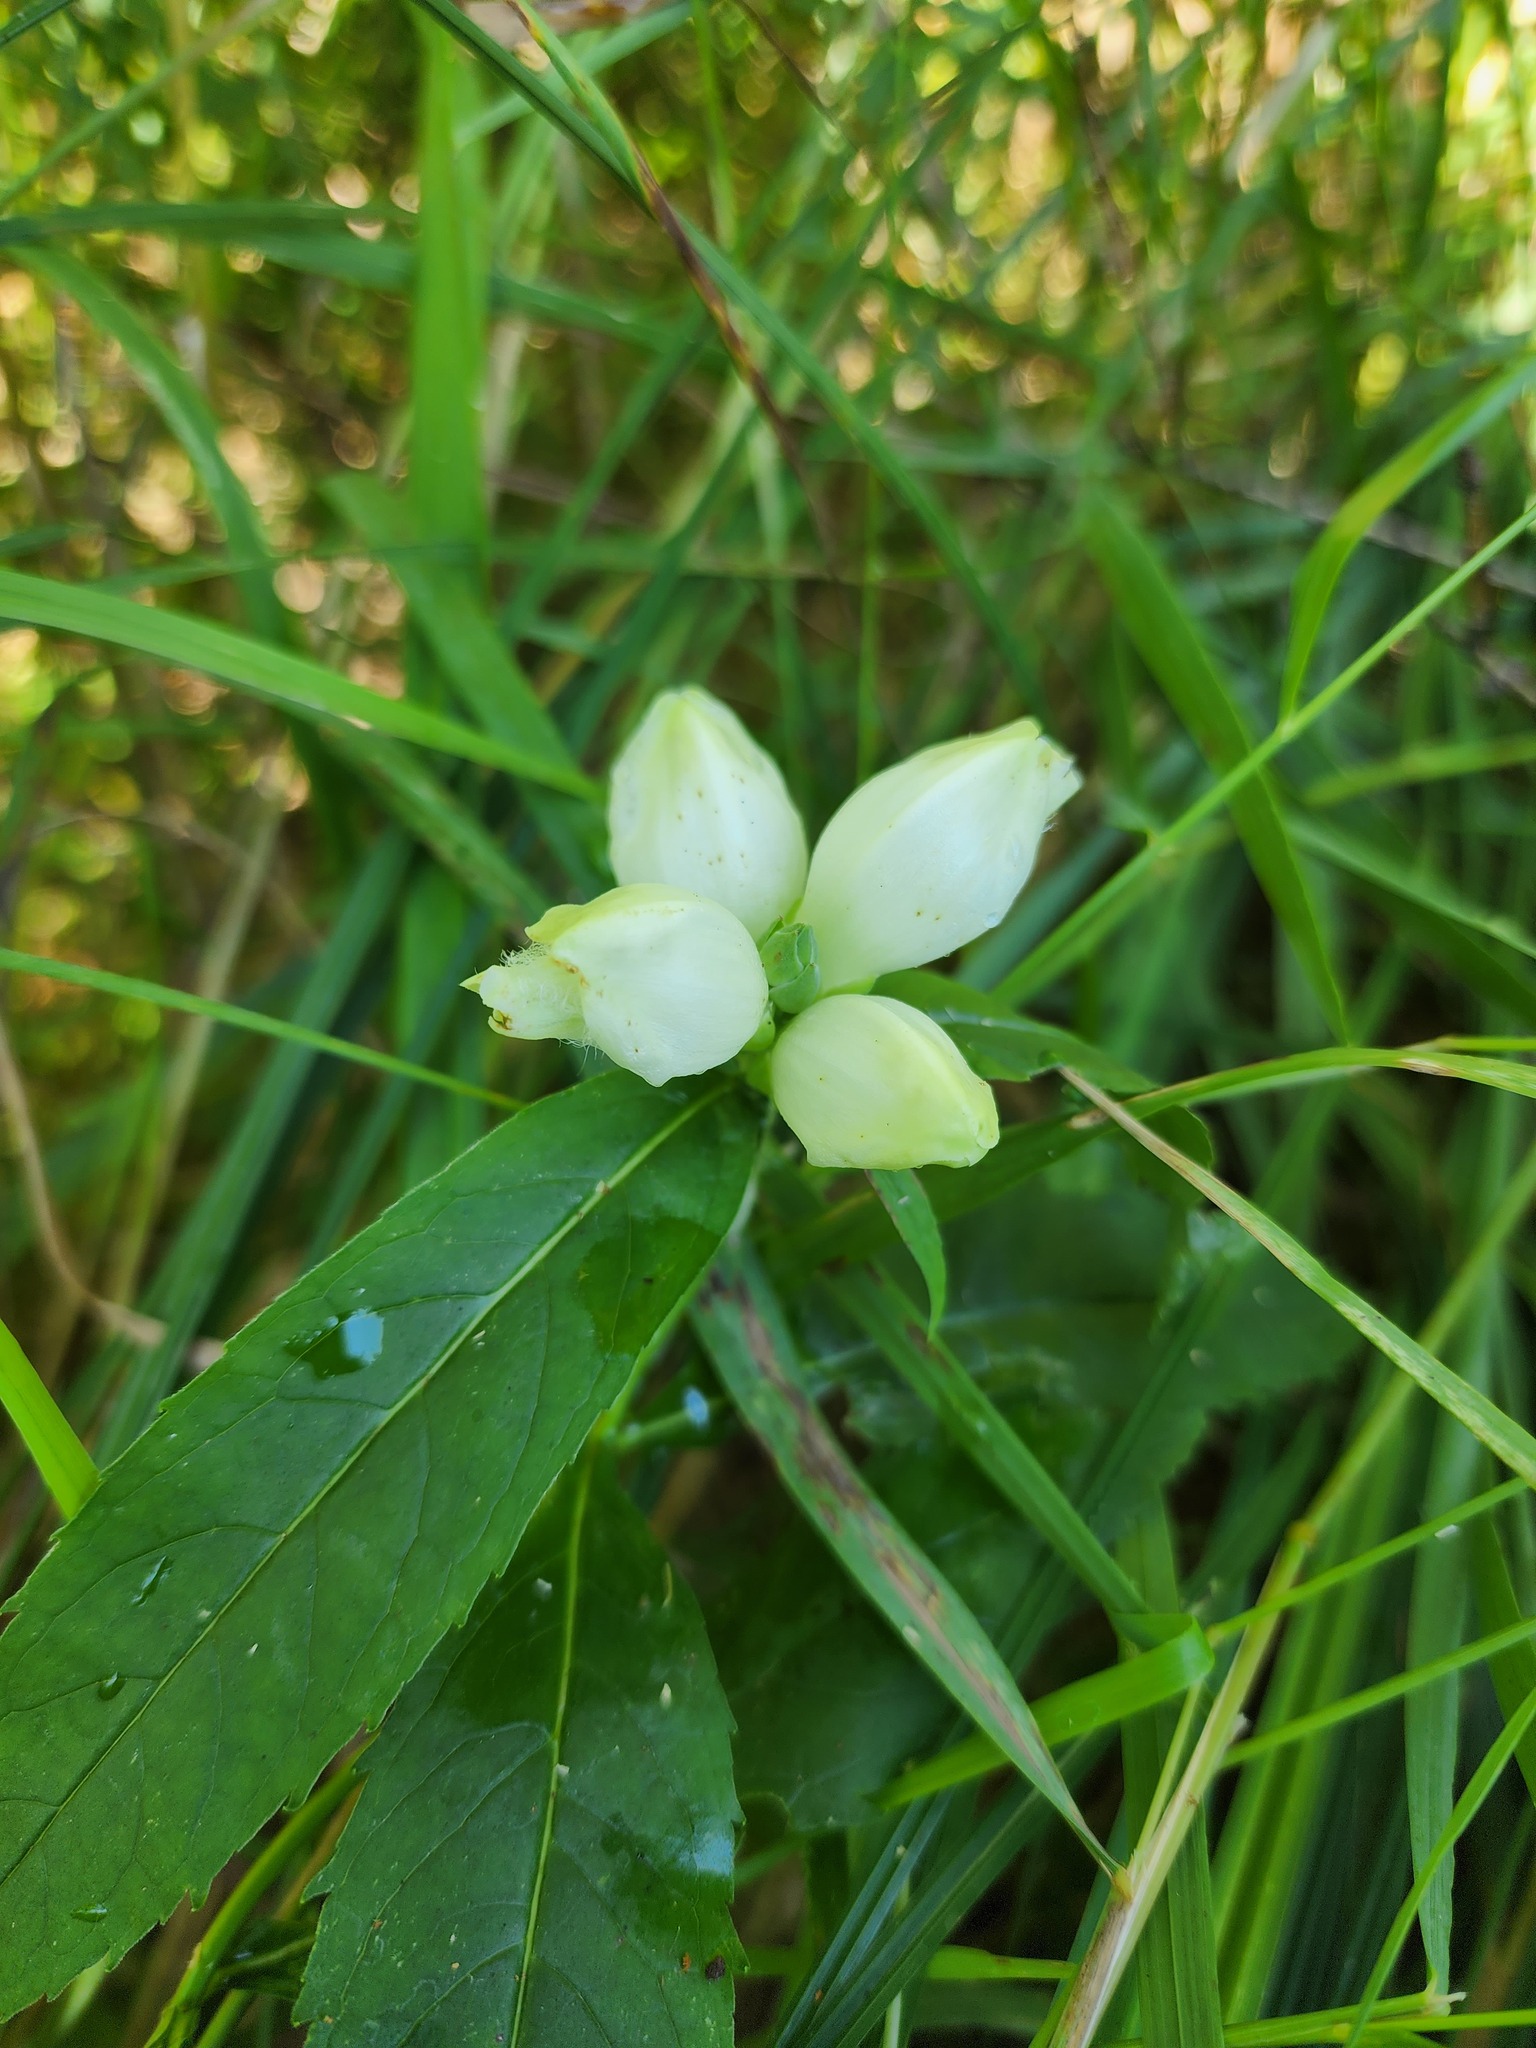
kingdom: Plantae
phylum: Tracheophyta
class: Magnoliopsida
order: Lamiales
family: Plantaginaceae
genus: Chelone
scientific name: Chelone glabra
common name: Snakehead
